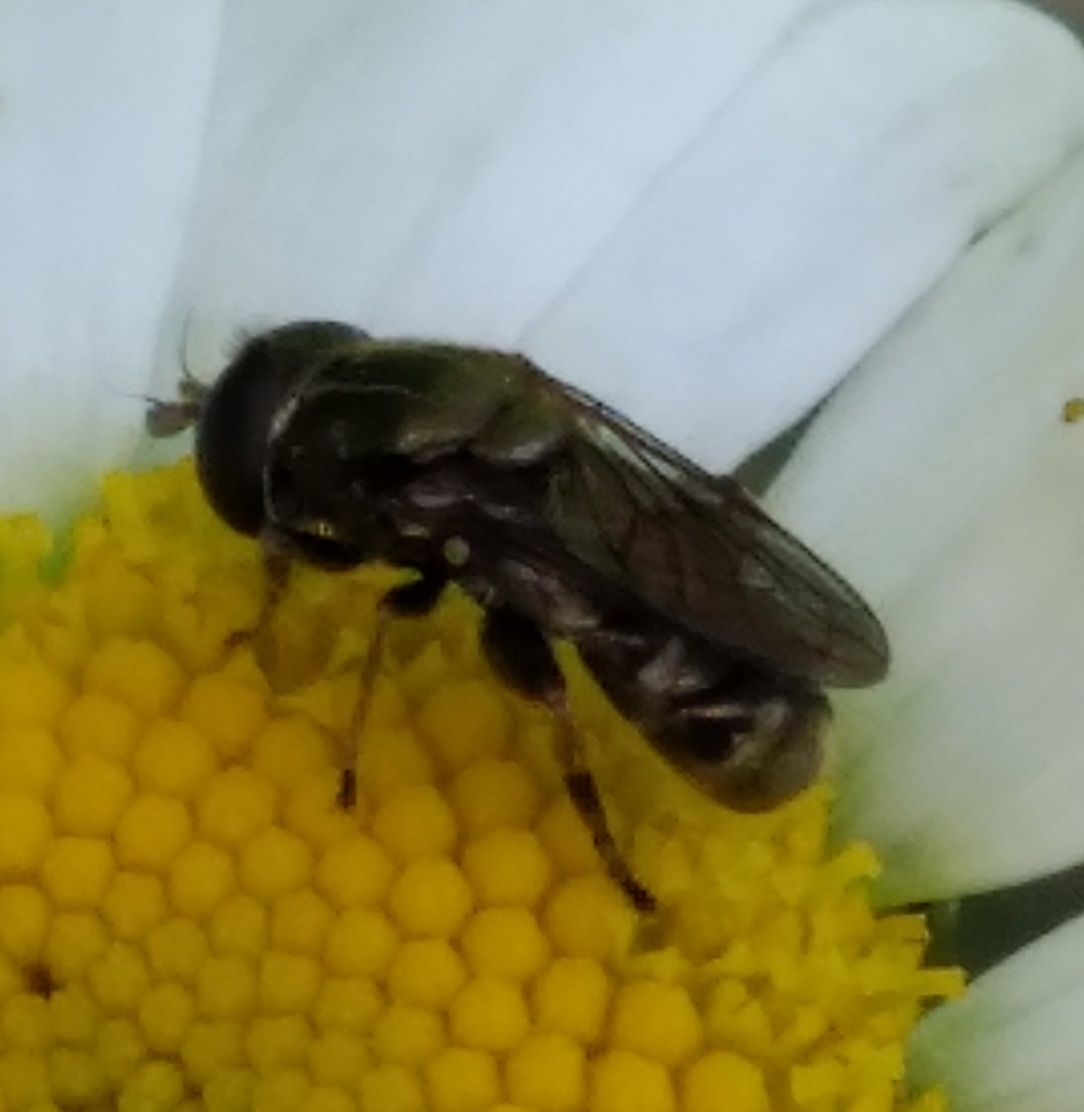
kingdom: Animalia
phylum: Arthropoda
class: Insecta
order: Diptera
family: Syrphidae
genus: Eumerus
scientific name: Eumerus
